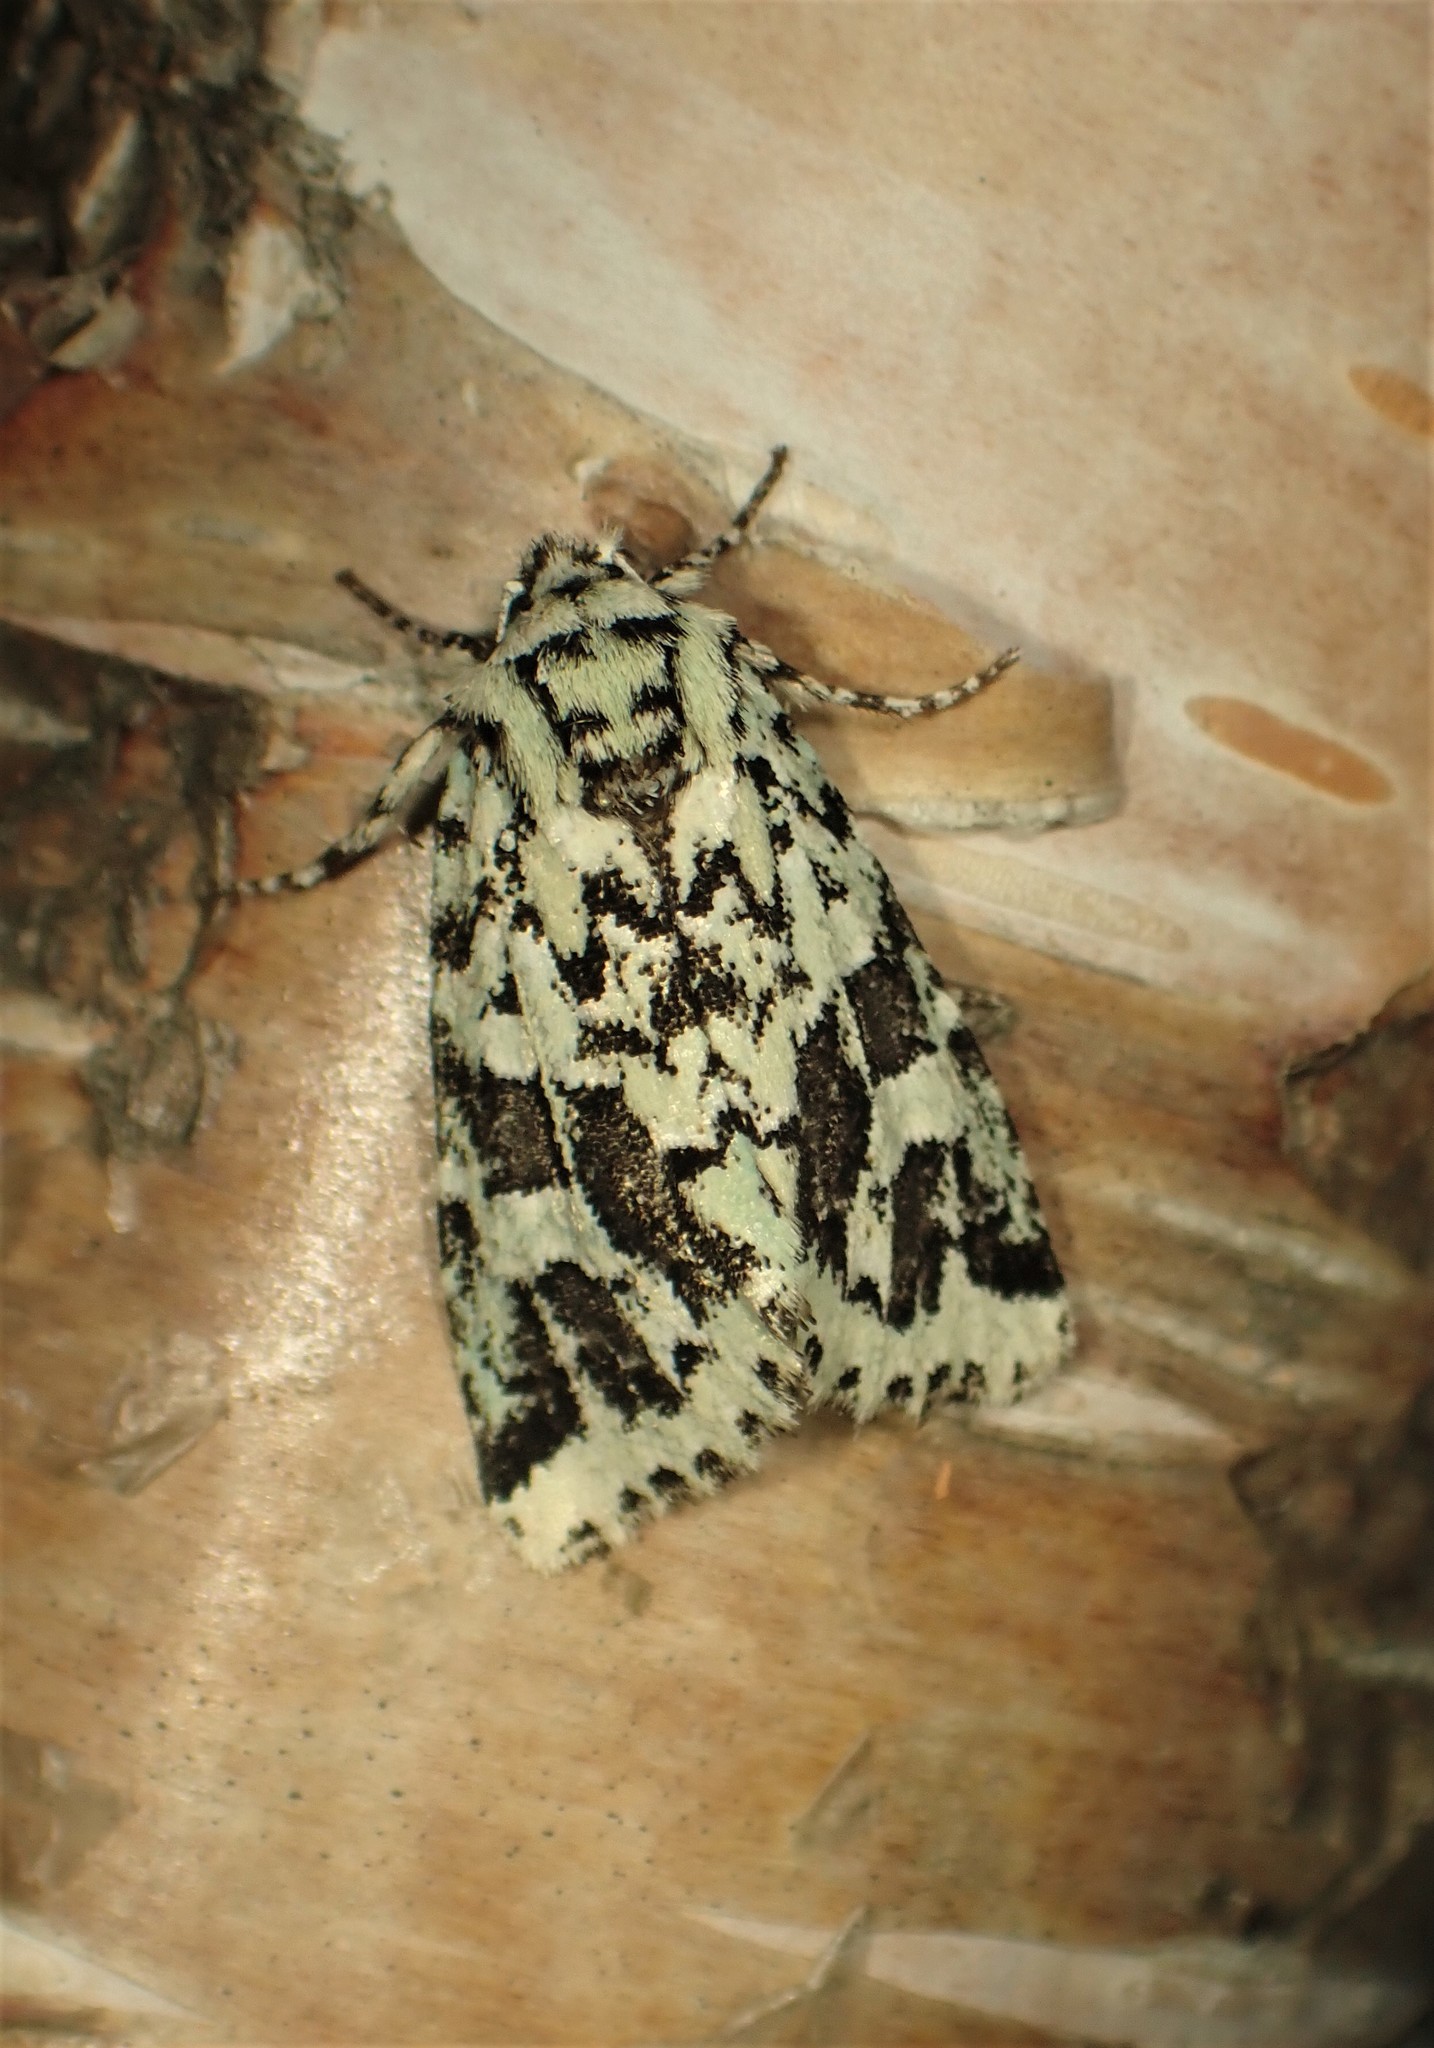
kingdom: Animalia
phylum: Arthropoda
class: Insecta
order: Lepidoptera
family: Noctuidae
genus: Feralia
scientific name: Feralia comstocki
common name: Comstock's sallow
